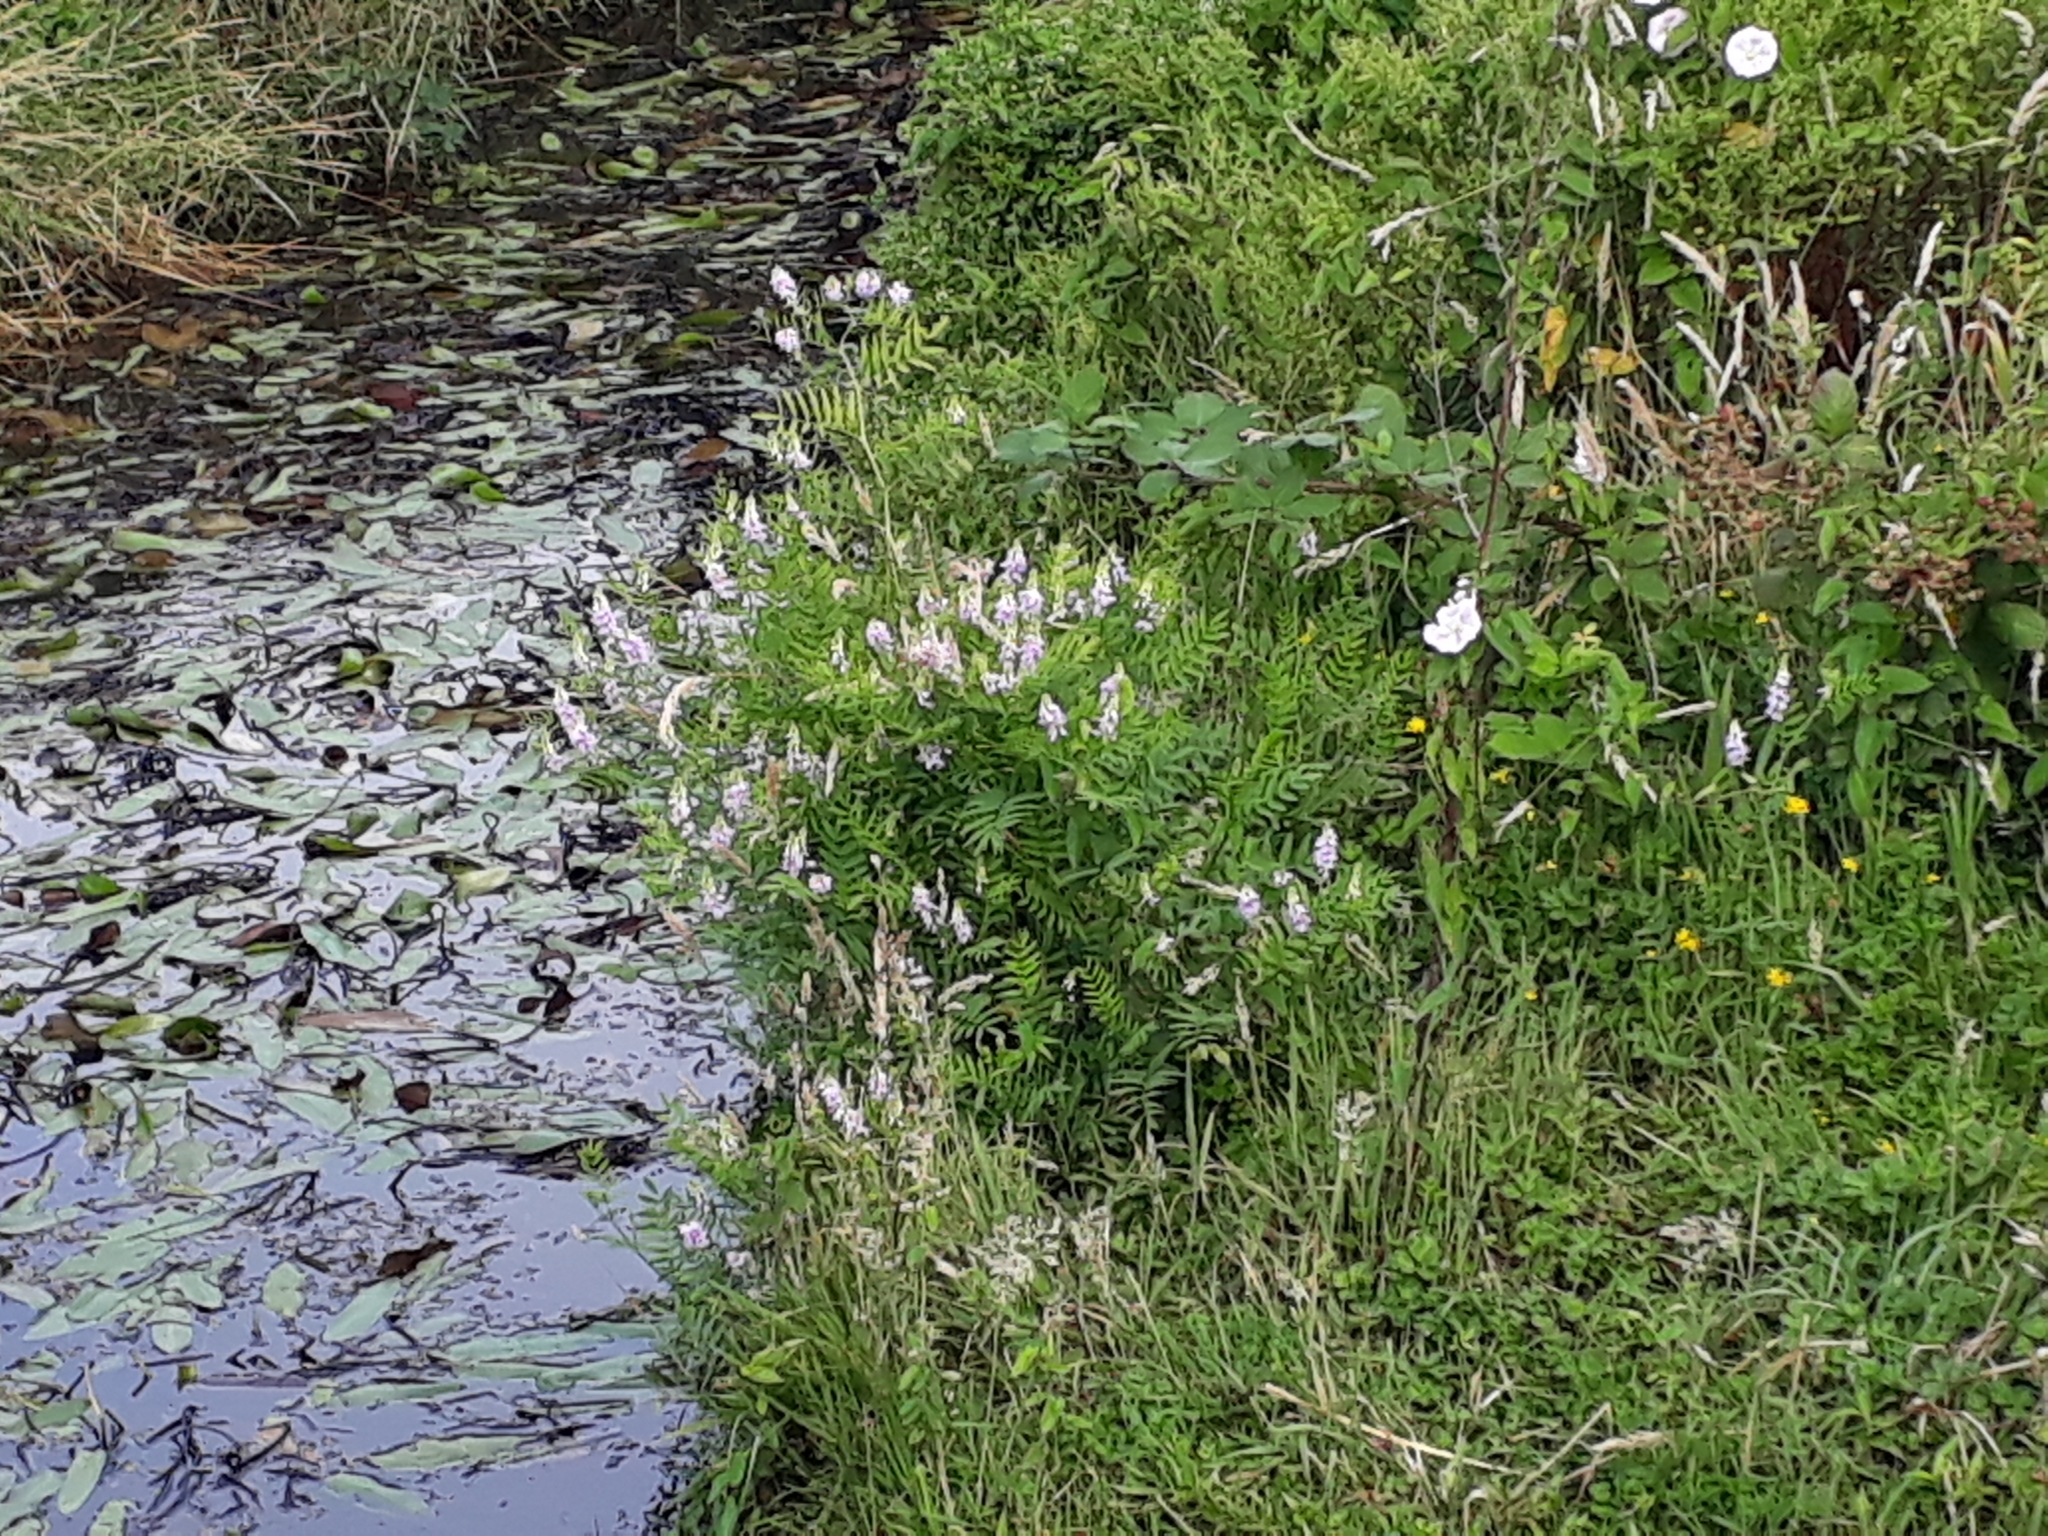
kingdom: Plantae
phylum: Tracheophyta
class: Magnoliopsida
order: Fabales
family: Fabaceae
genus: Galega
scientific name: Galega officinalis
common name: Goat's-rue
